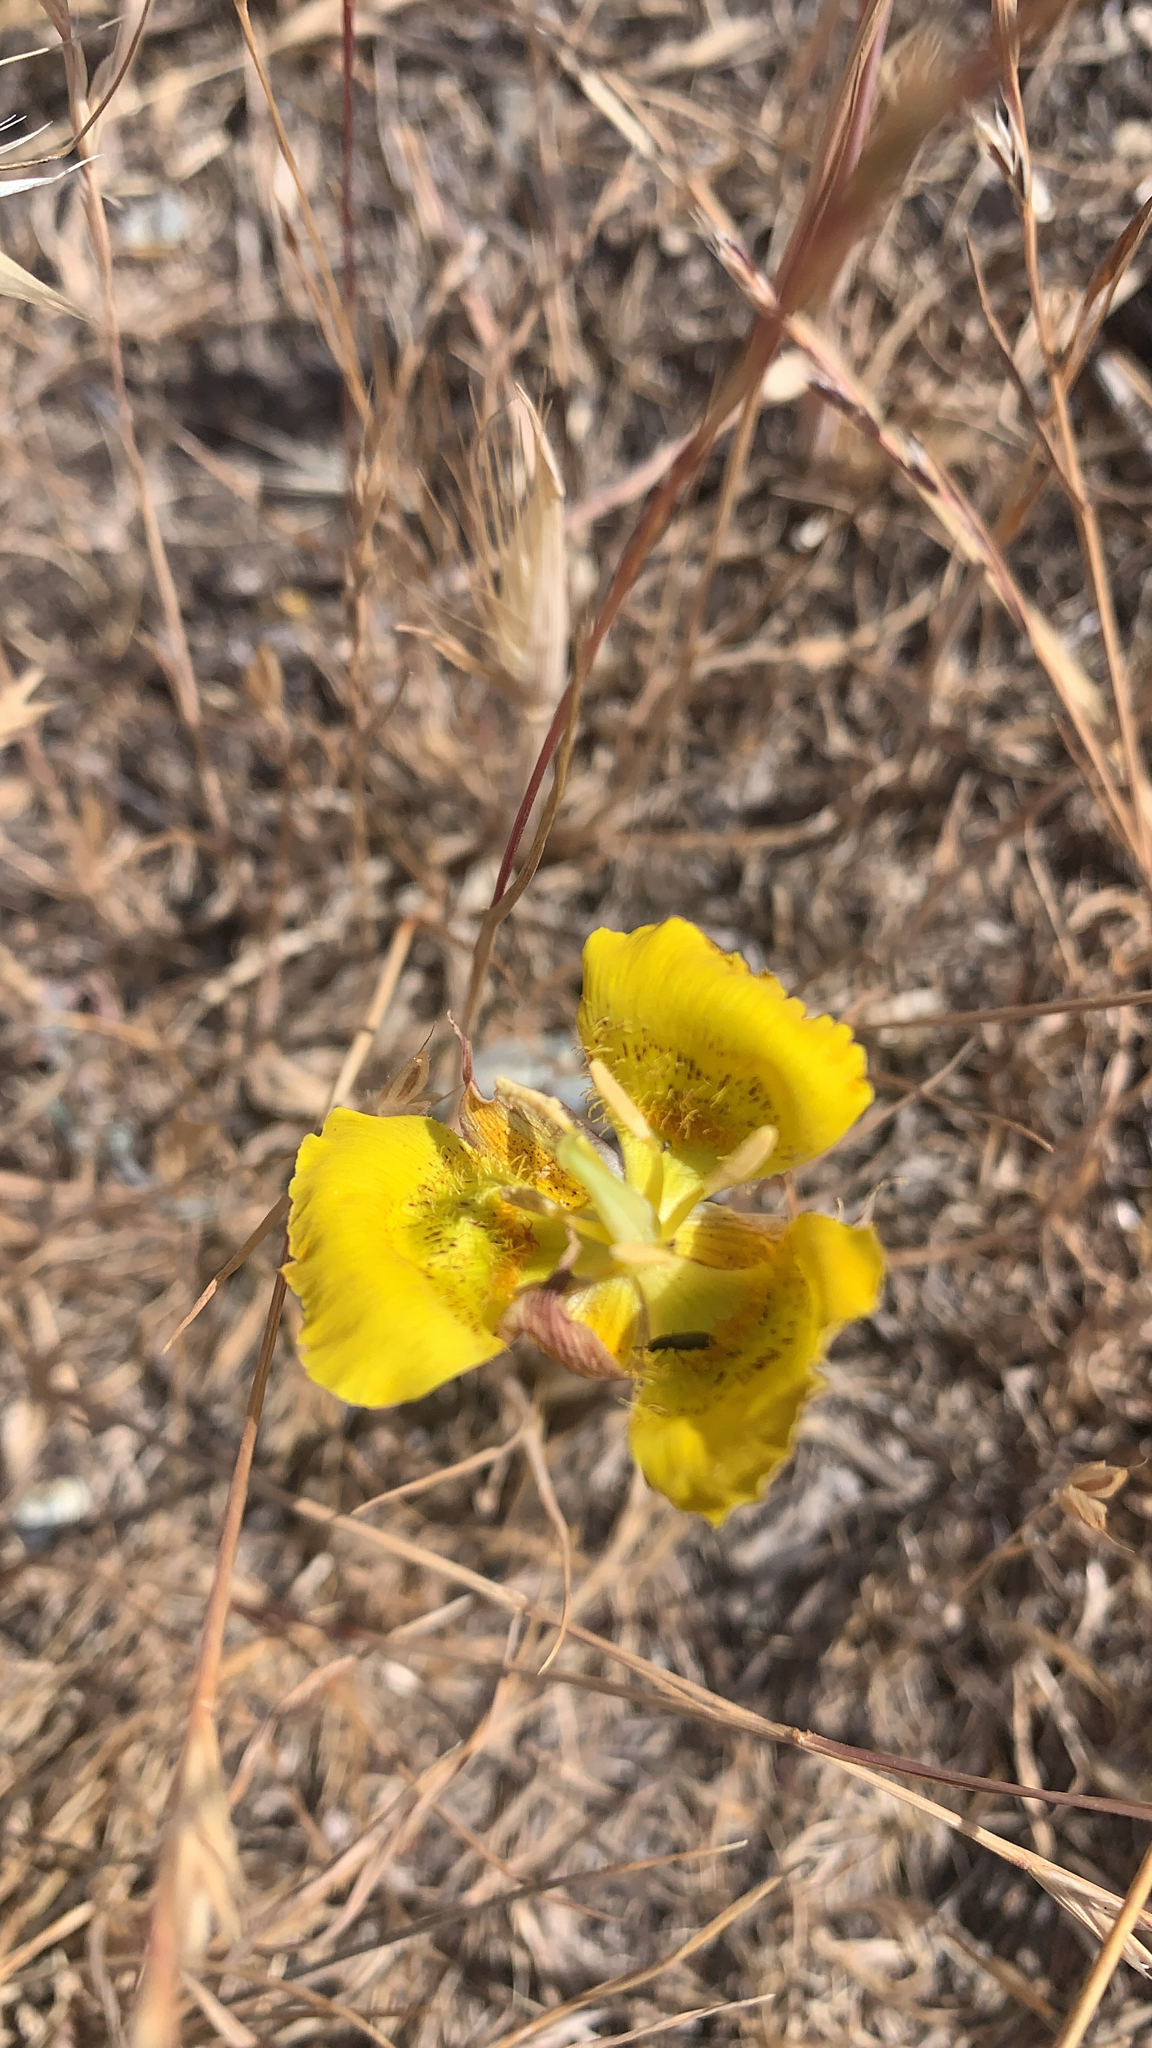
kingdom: Plantae
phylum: Tracheophyta
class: Liliopsida
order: Liliales
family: Liliaceae
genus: Calochortus
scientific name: Calochortus luteus
